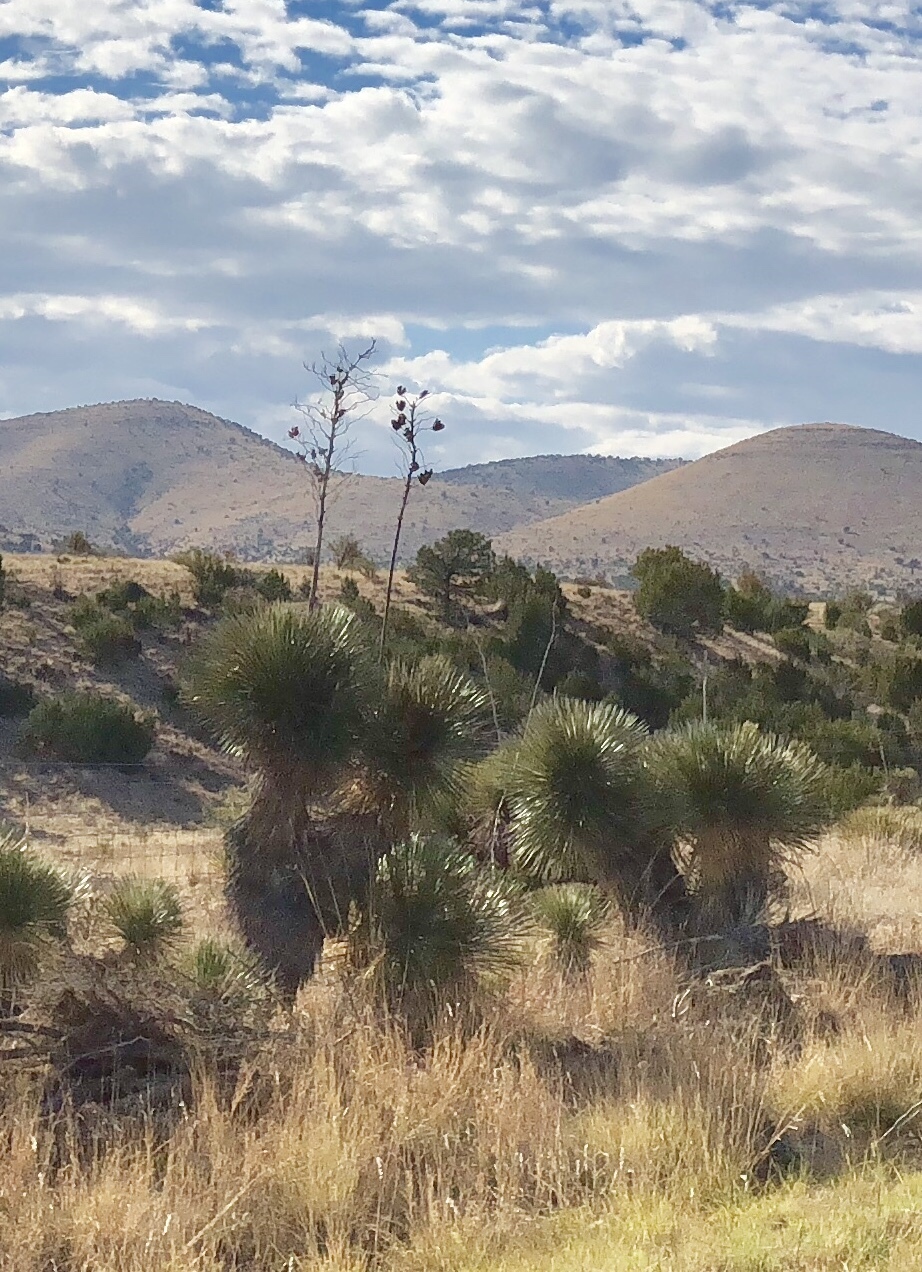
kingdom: Plantae
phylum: Tracheophyta
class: Liliopsida
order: Asparagales
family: Asparagaceae
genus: Yucca
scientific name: Yucca elata
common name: Palmella
